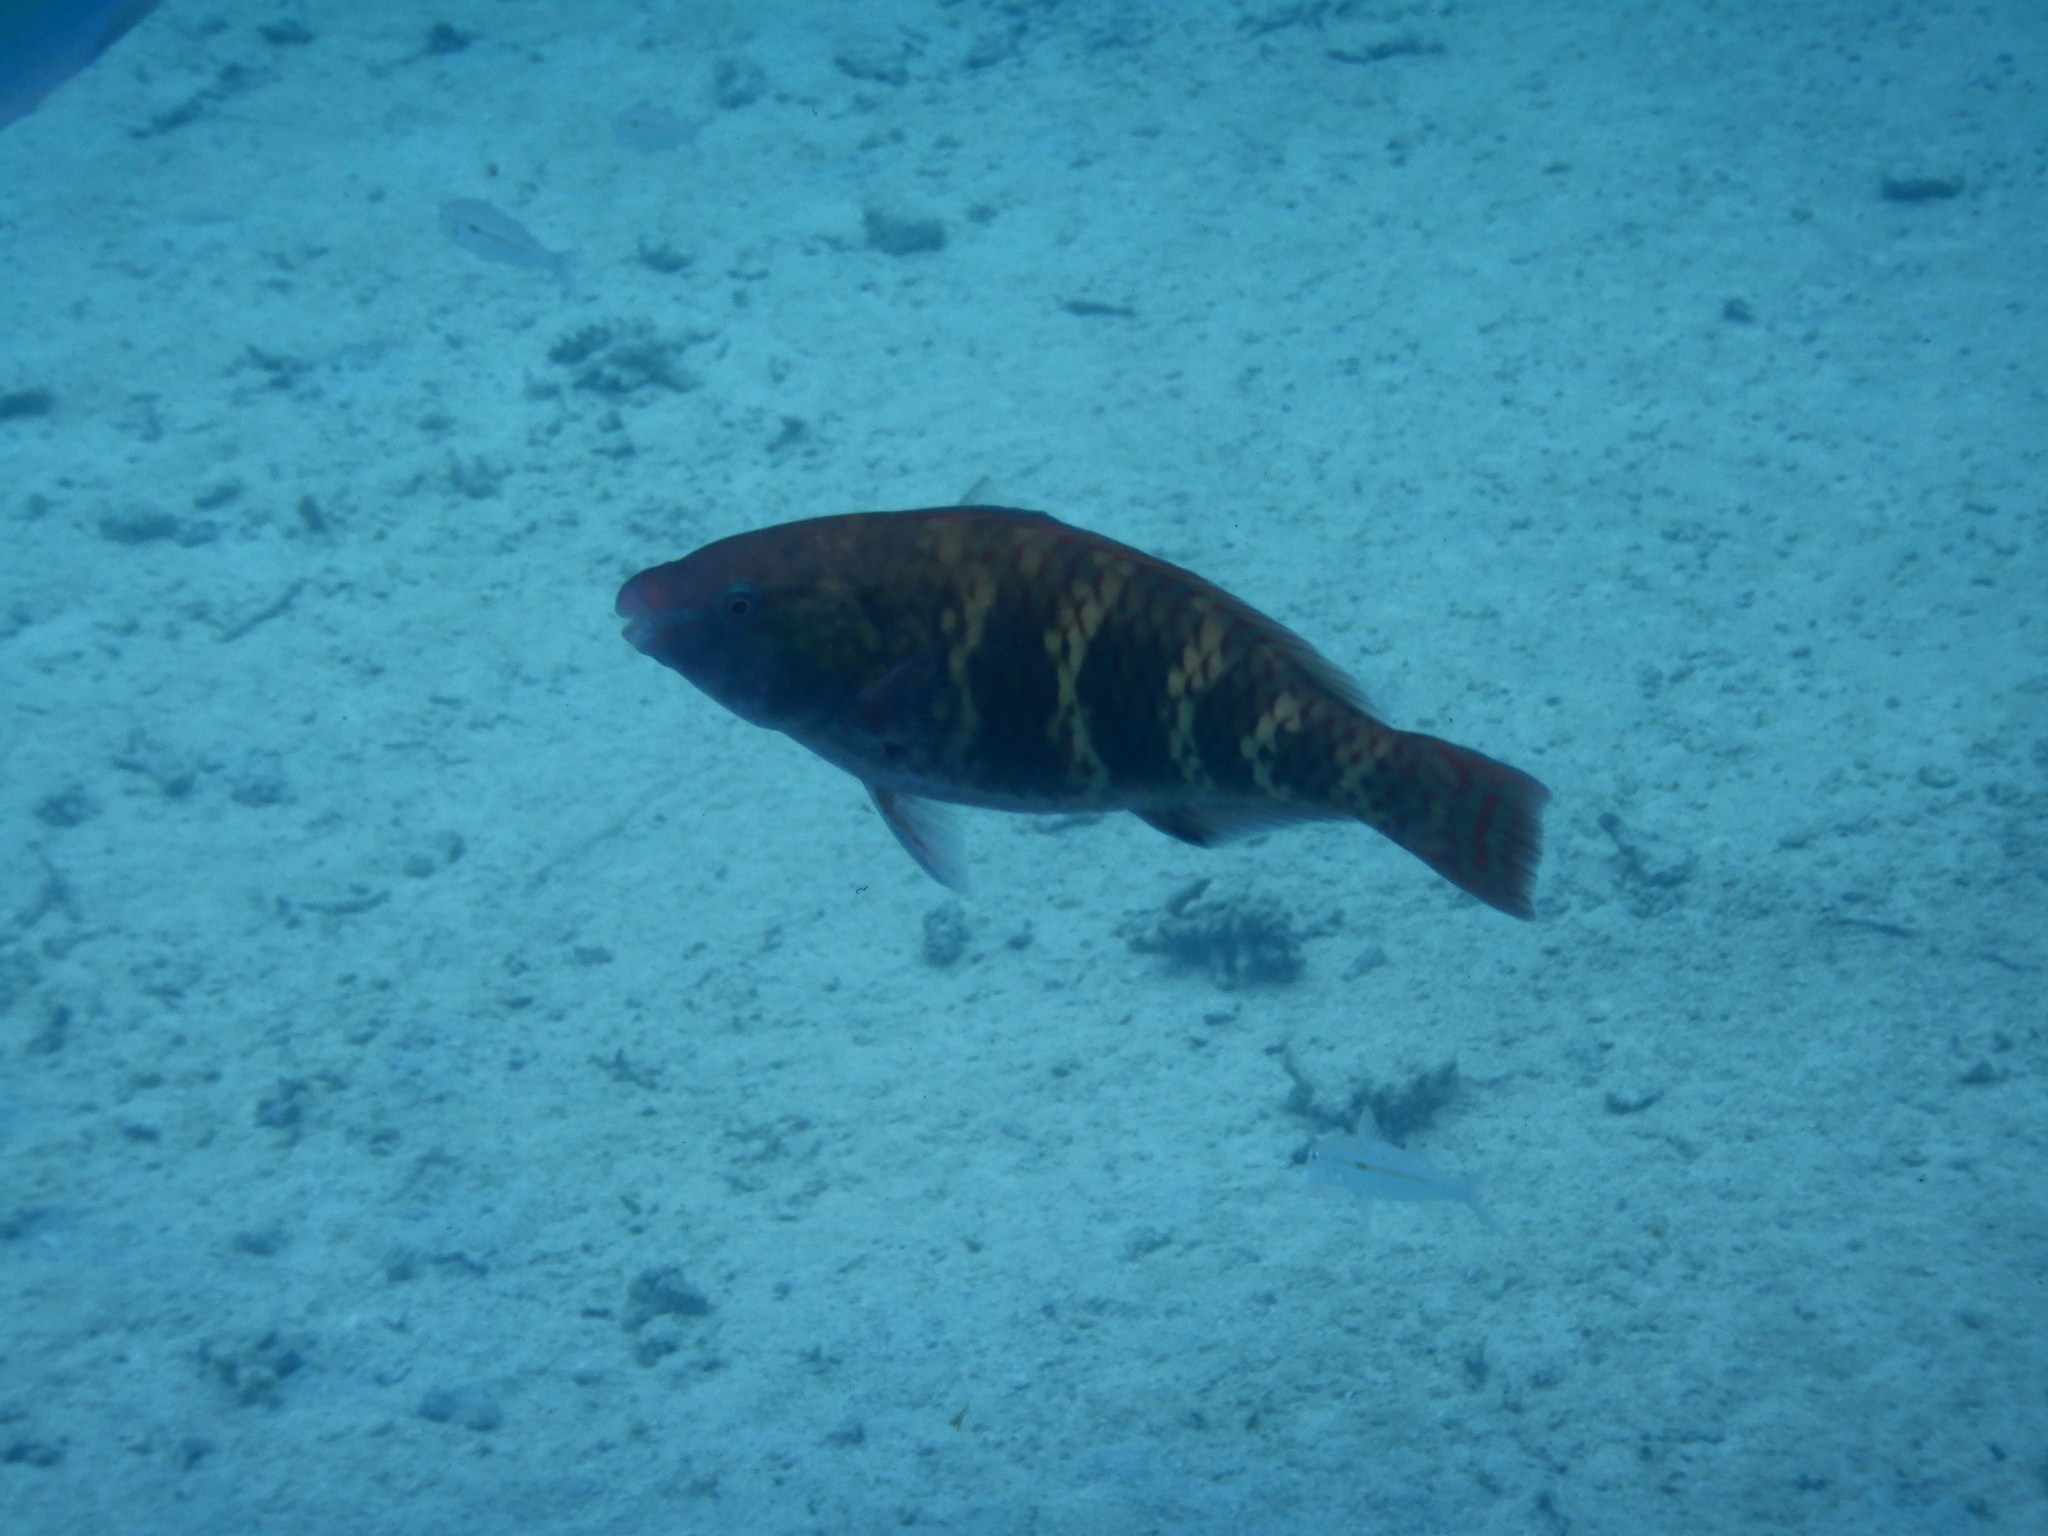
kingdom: Animalia
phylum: Chordata
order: Perciformes
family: Scaridae
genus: Scarus
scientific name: Scarus schlegeli
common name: Schlegel's parrotfish
